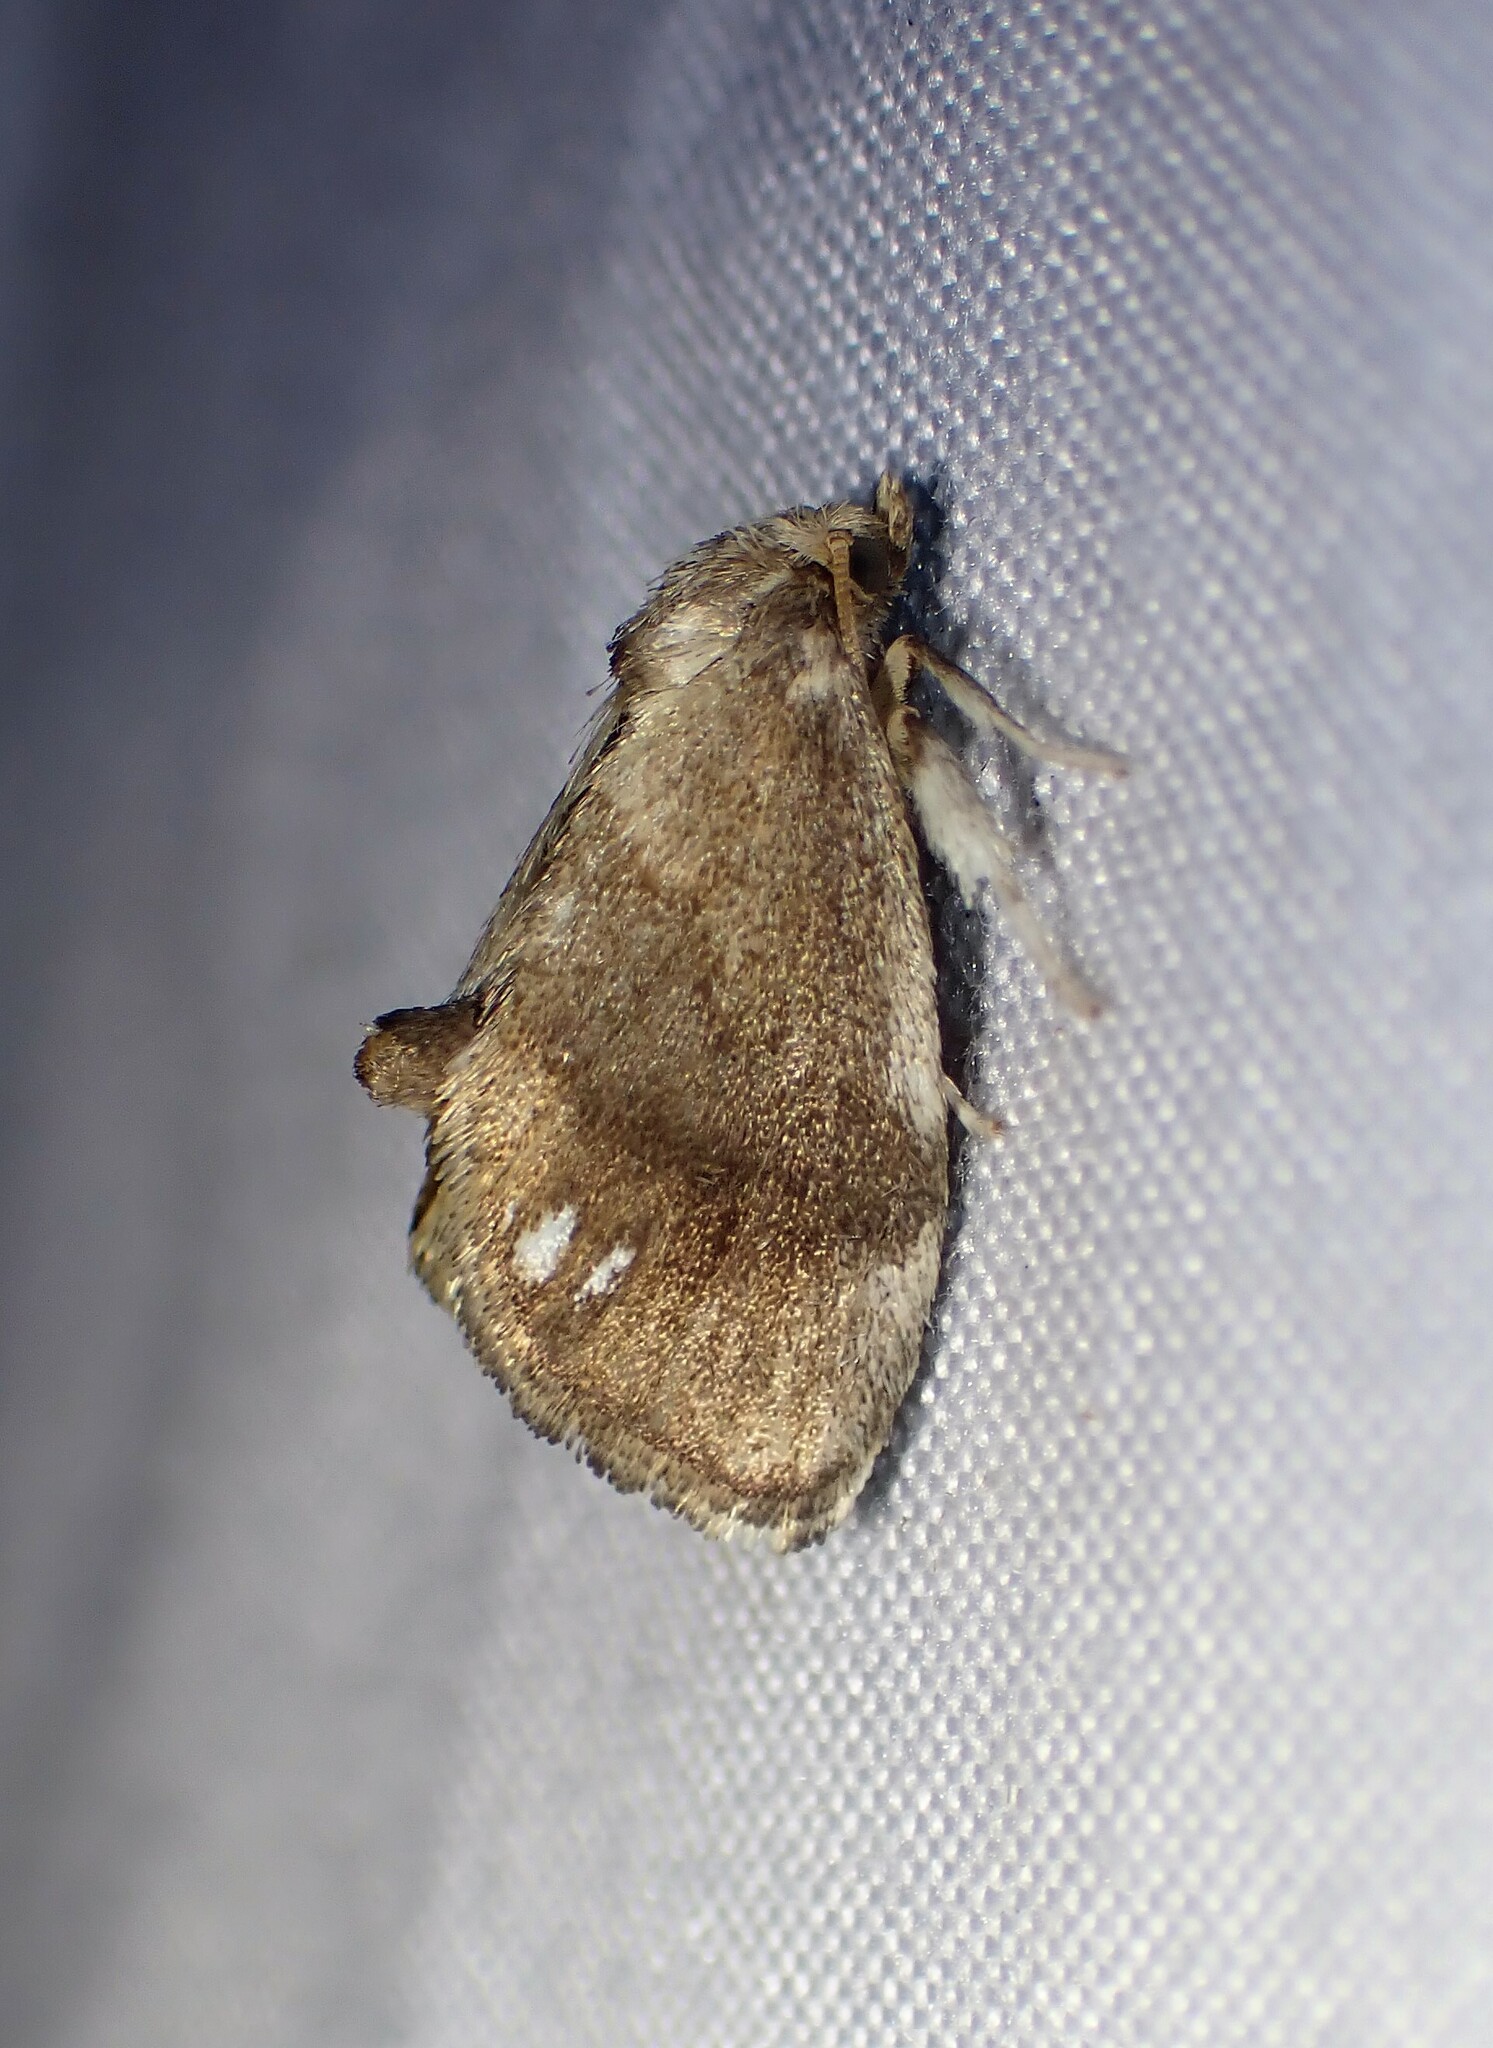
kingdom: Animalia
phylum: Arthropoda
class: Insecta
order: Lepidoptera
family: Limacodidae
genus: Packardia
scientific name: Packardia geminata
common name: Jeweled tailed slug moth
